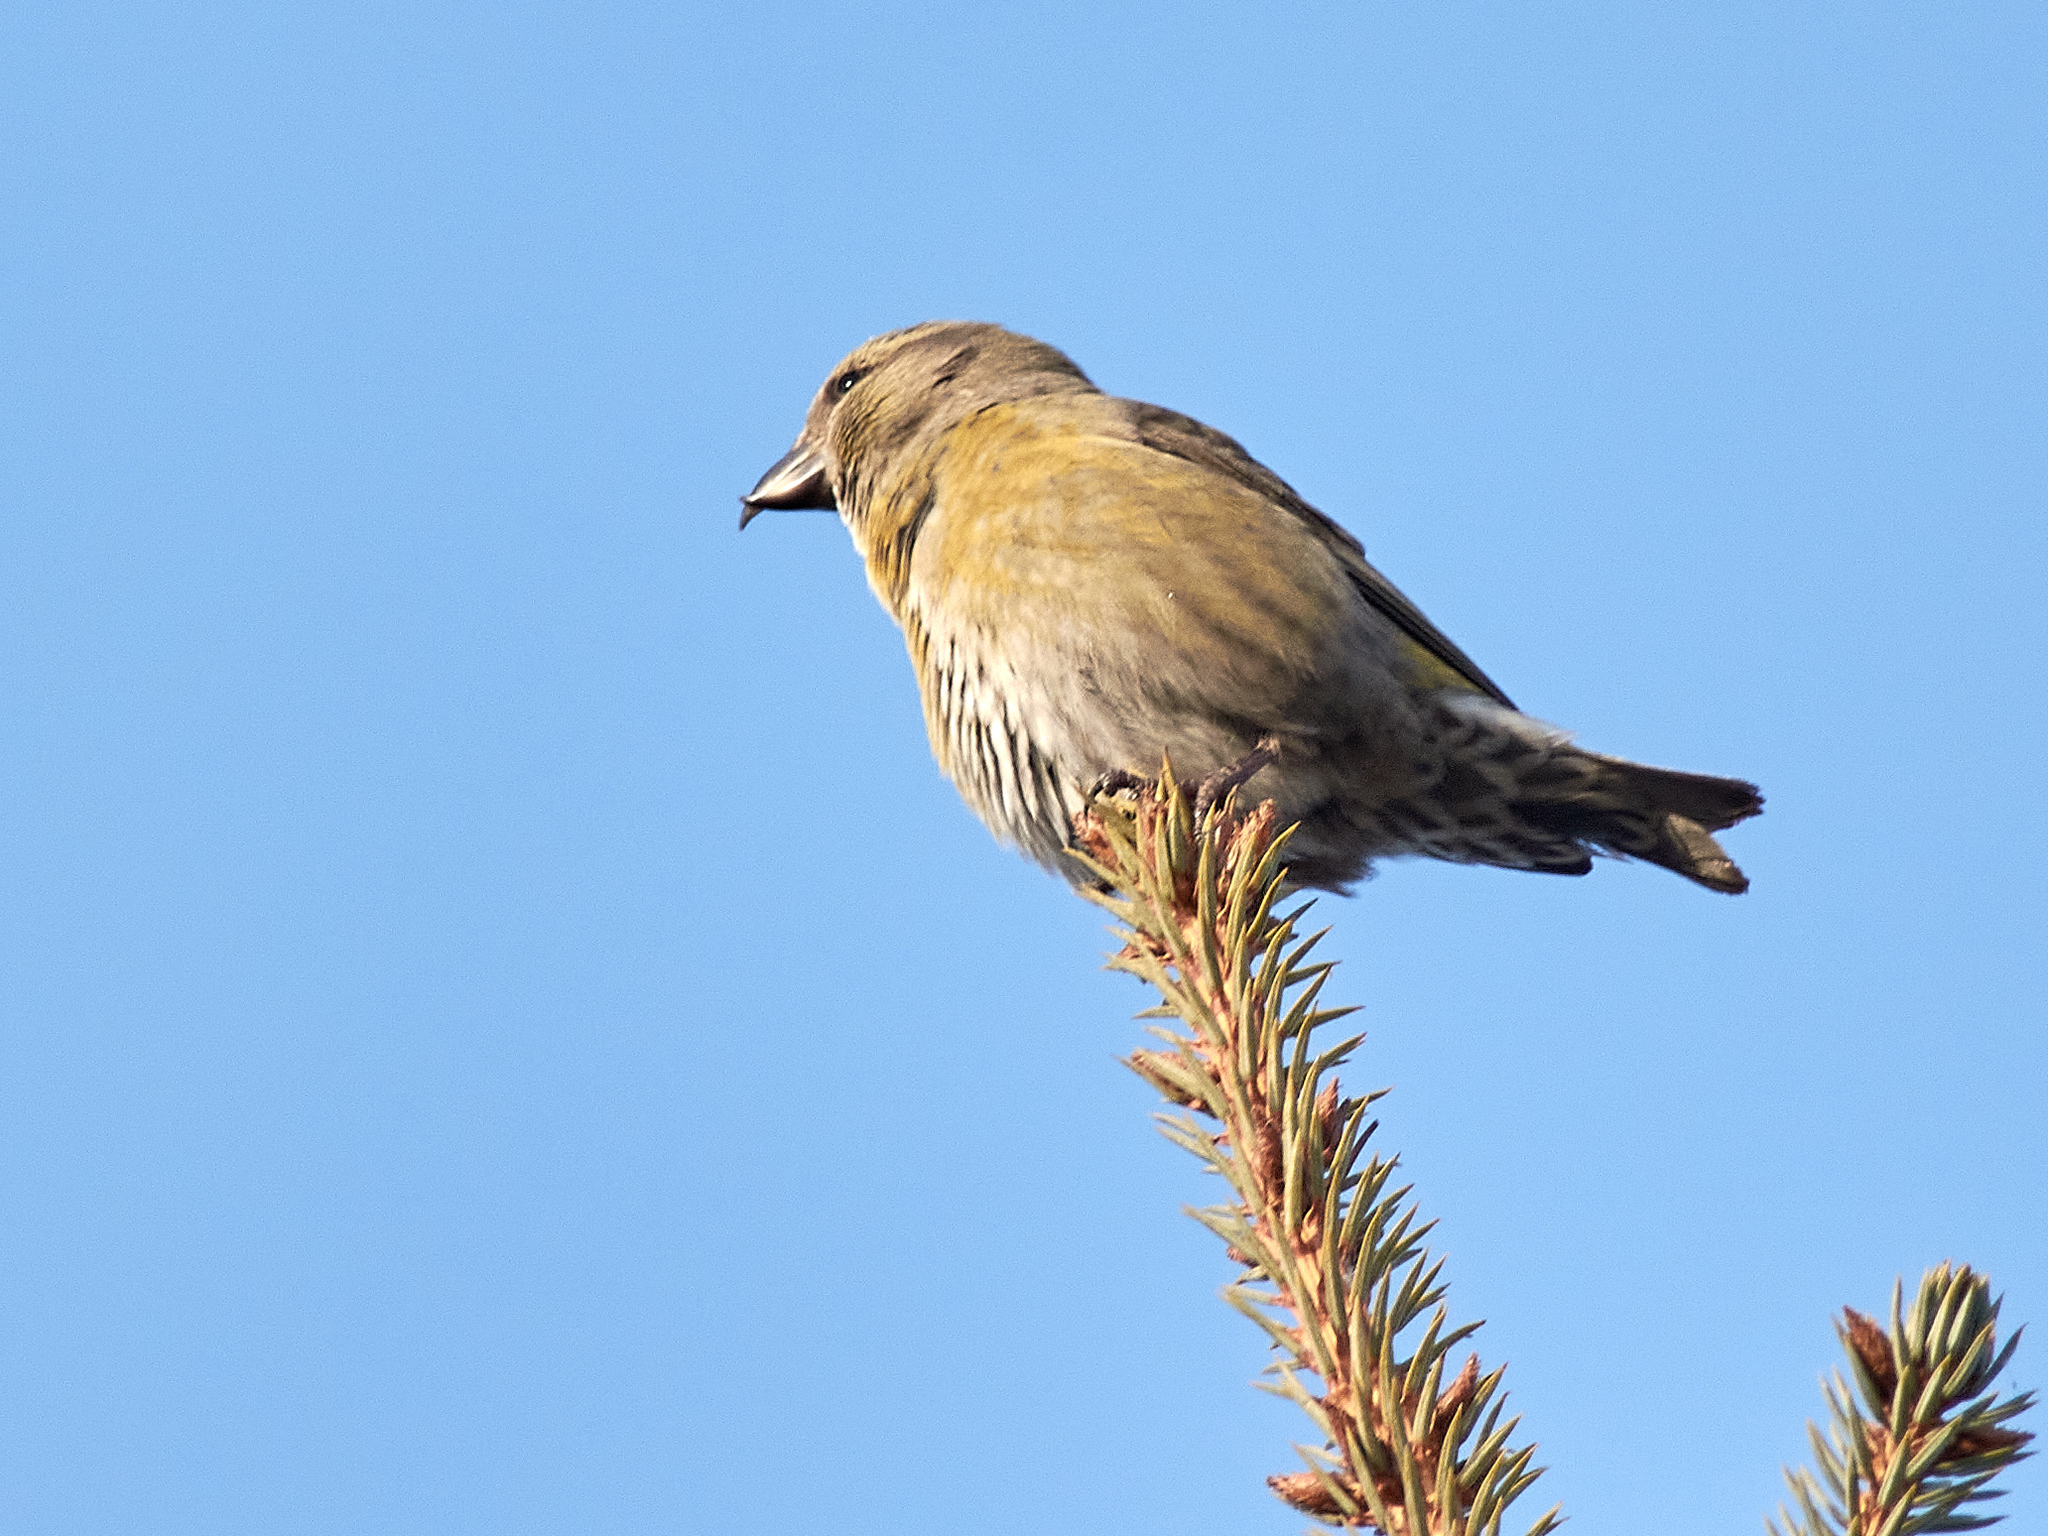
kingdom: Animalia
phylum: Chordata
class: Aves
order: Passeriformes
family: Fringillidae
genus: Loxia
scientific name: Loxia curvirostra
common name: Red crossbill
